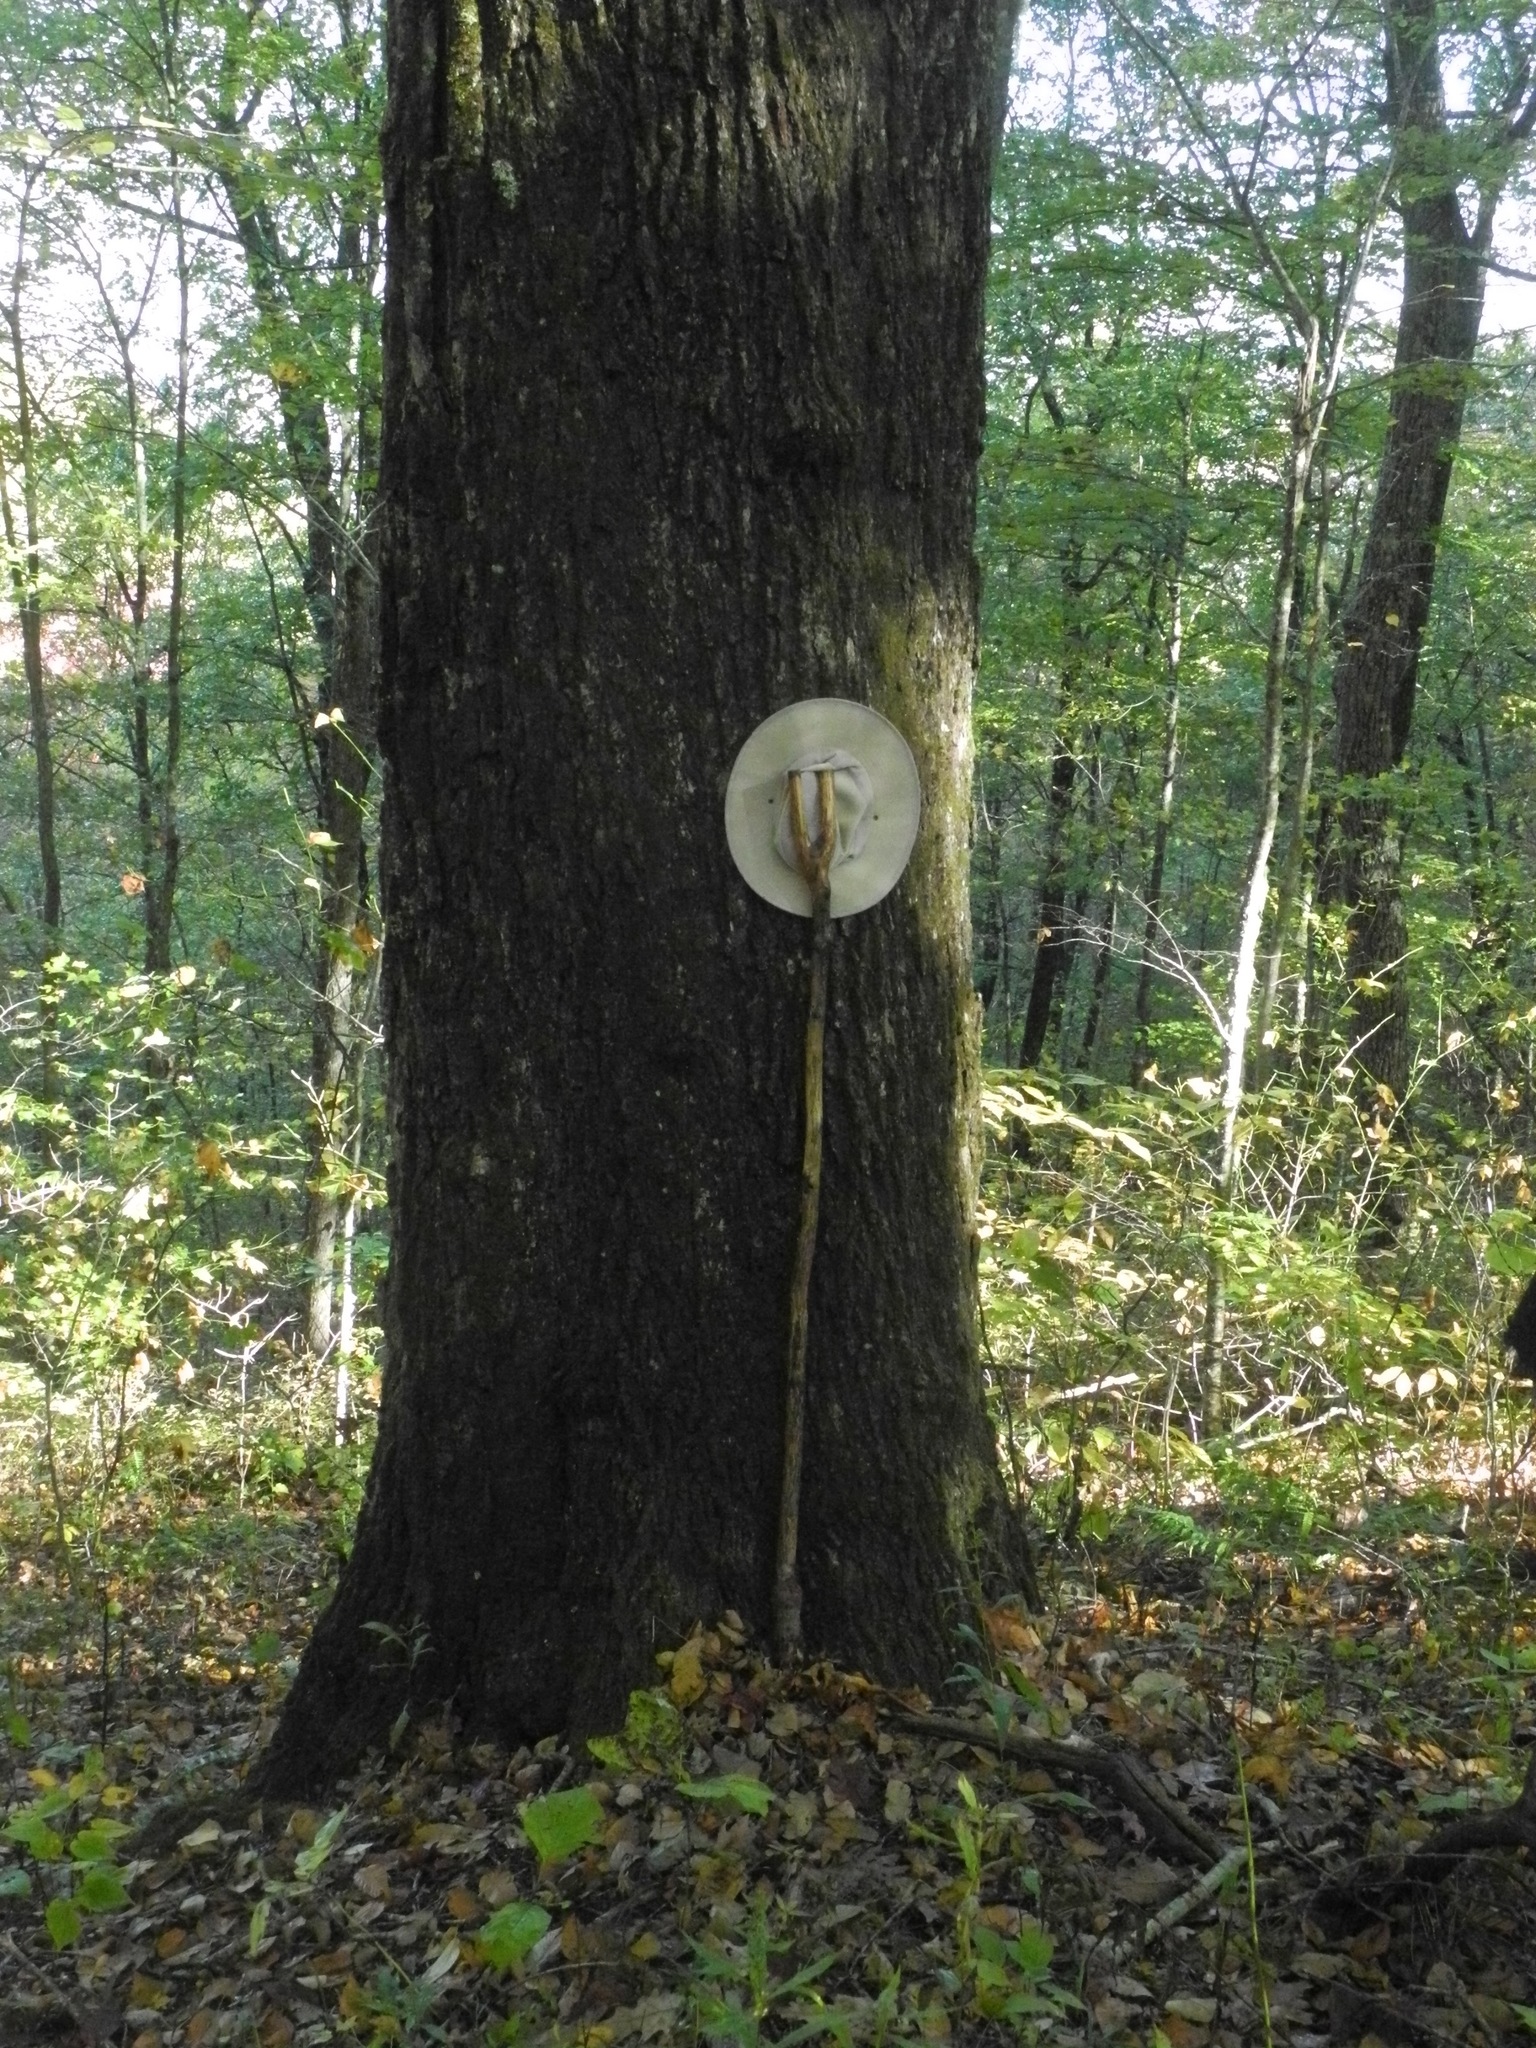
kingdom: Plantae
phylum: Tracheophyta
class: Magnoliopsida
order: Fagales
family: Fagaceae
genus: Quercus
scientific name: Quercus rubra
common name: Red oak
